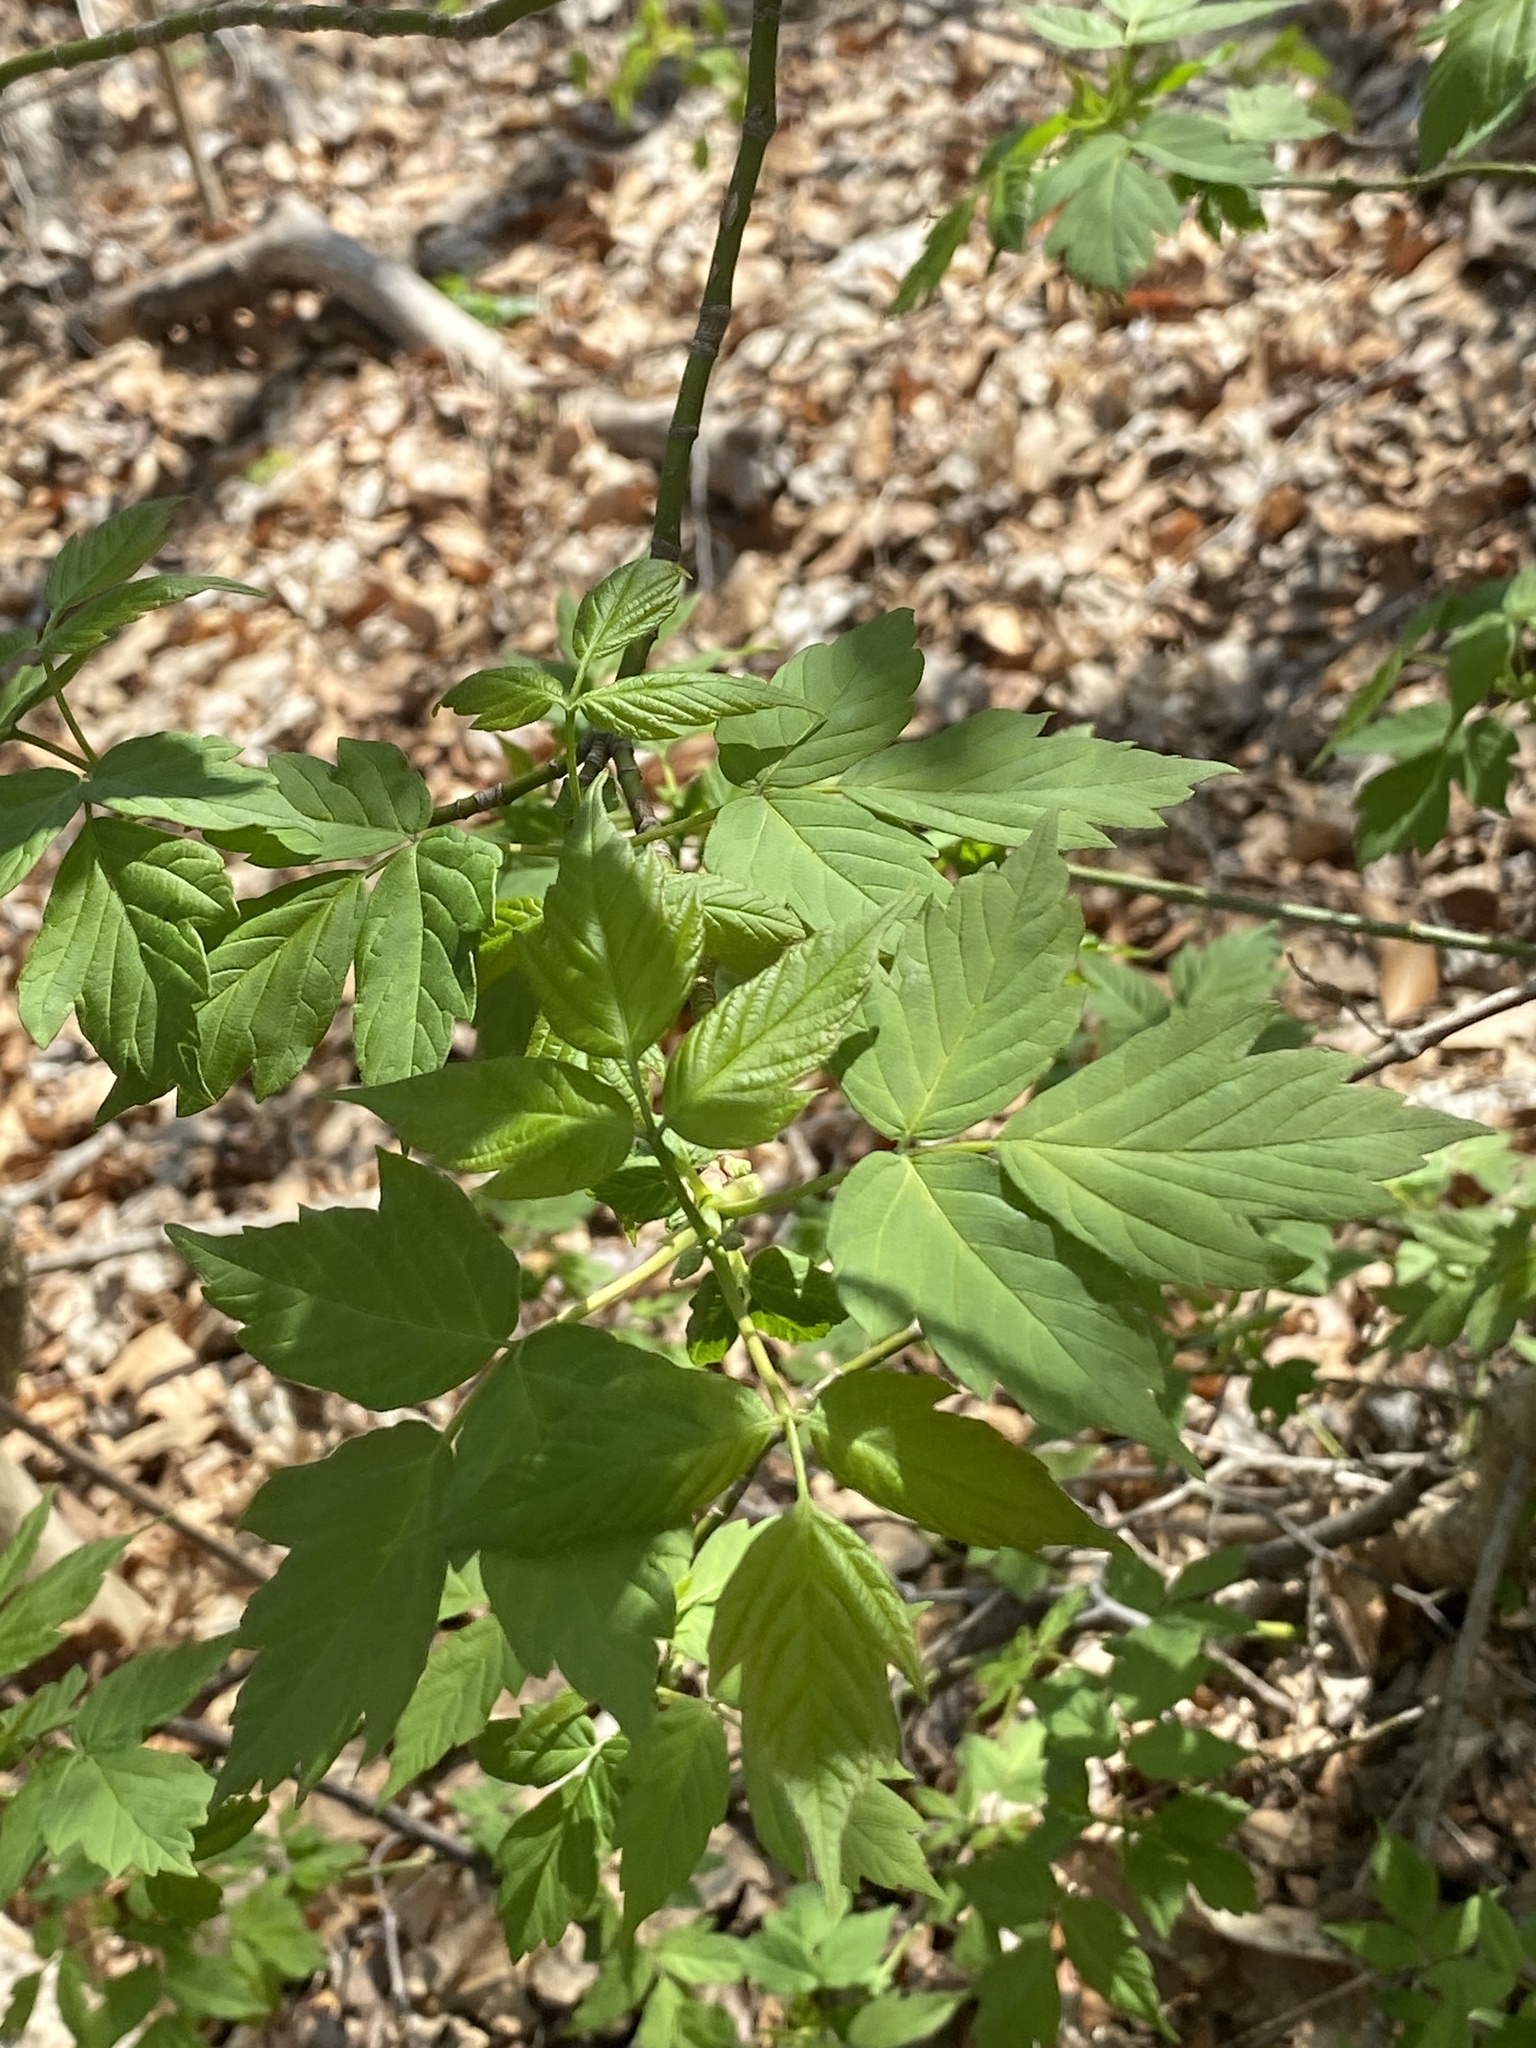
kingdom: Plantae
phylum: Tracheophyta
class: Magnoliopsida
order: Sapindales
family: Sapindaceae
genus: Acer
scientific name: Acer negundo
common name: Ashleaf maple
